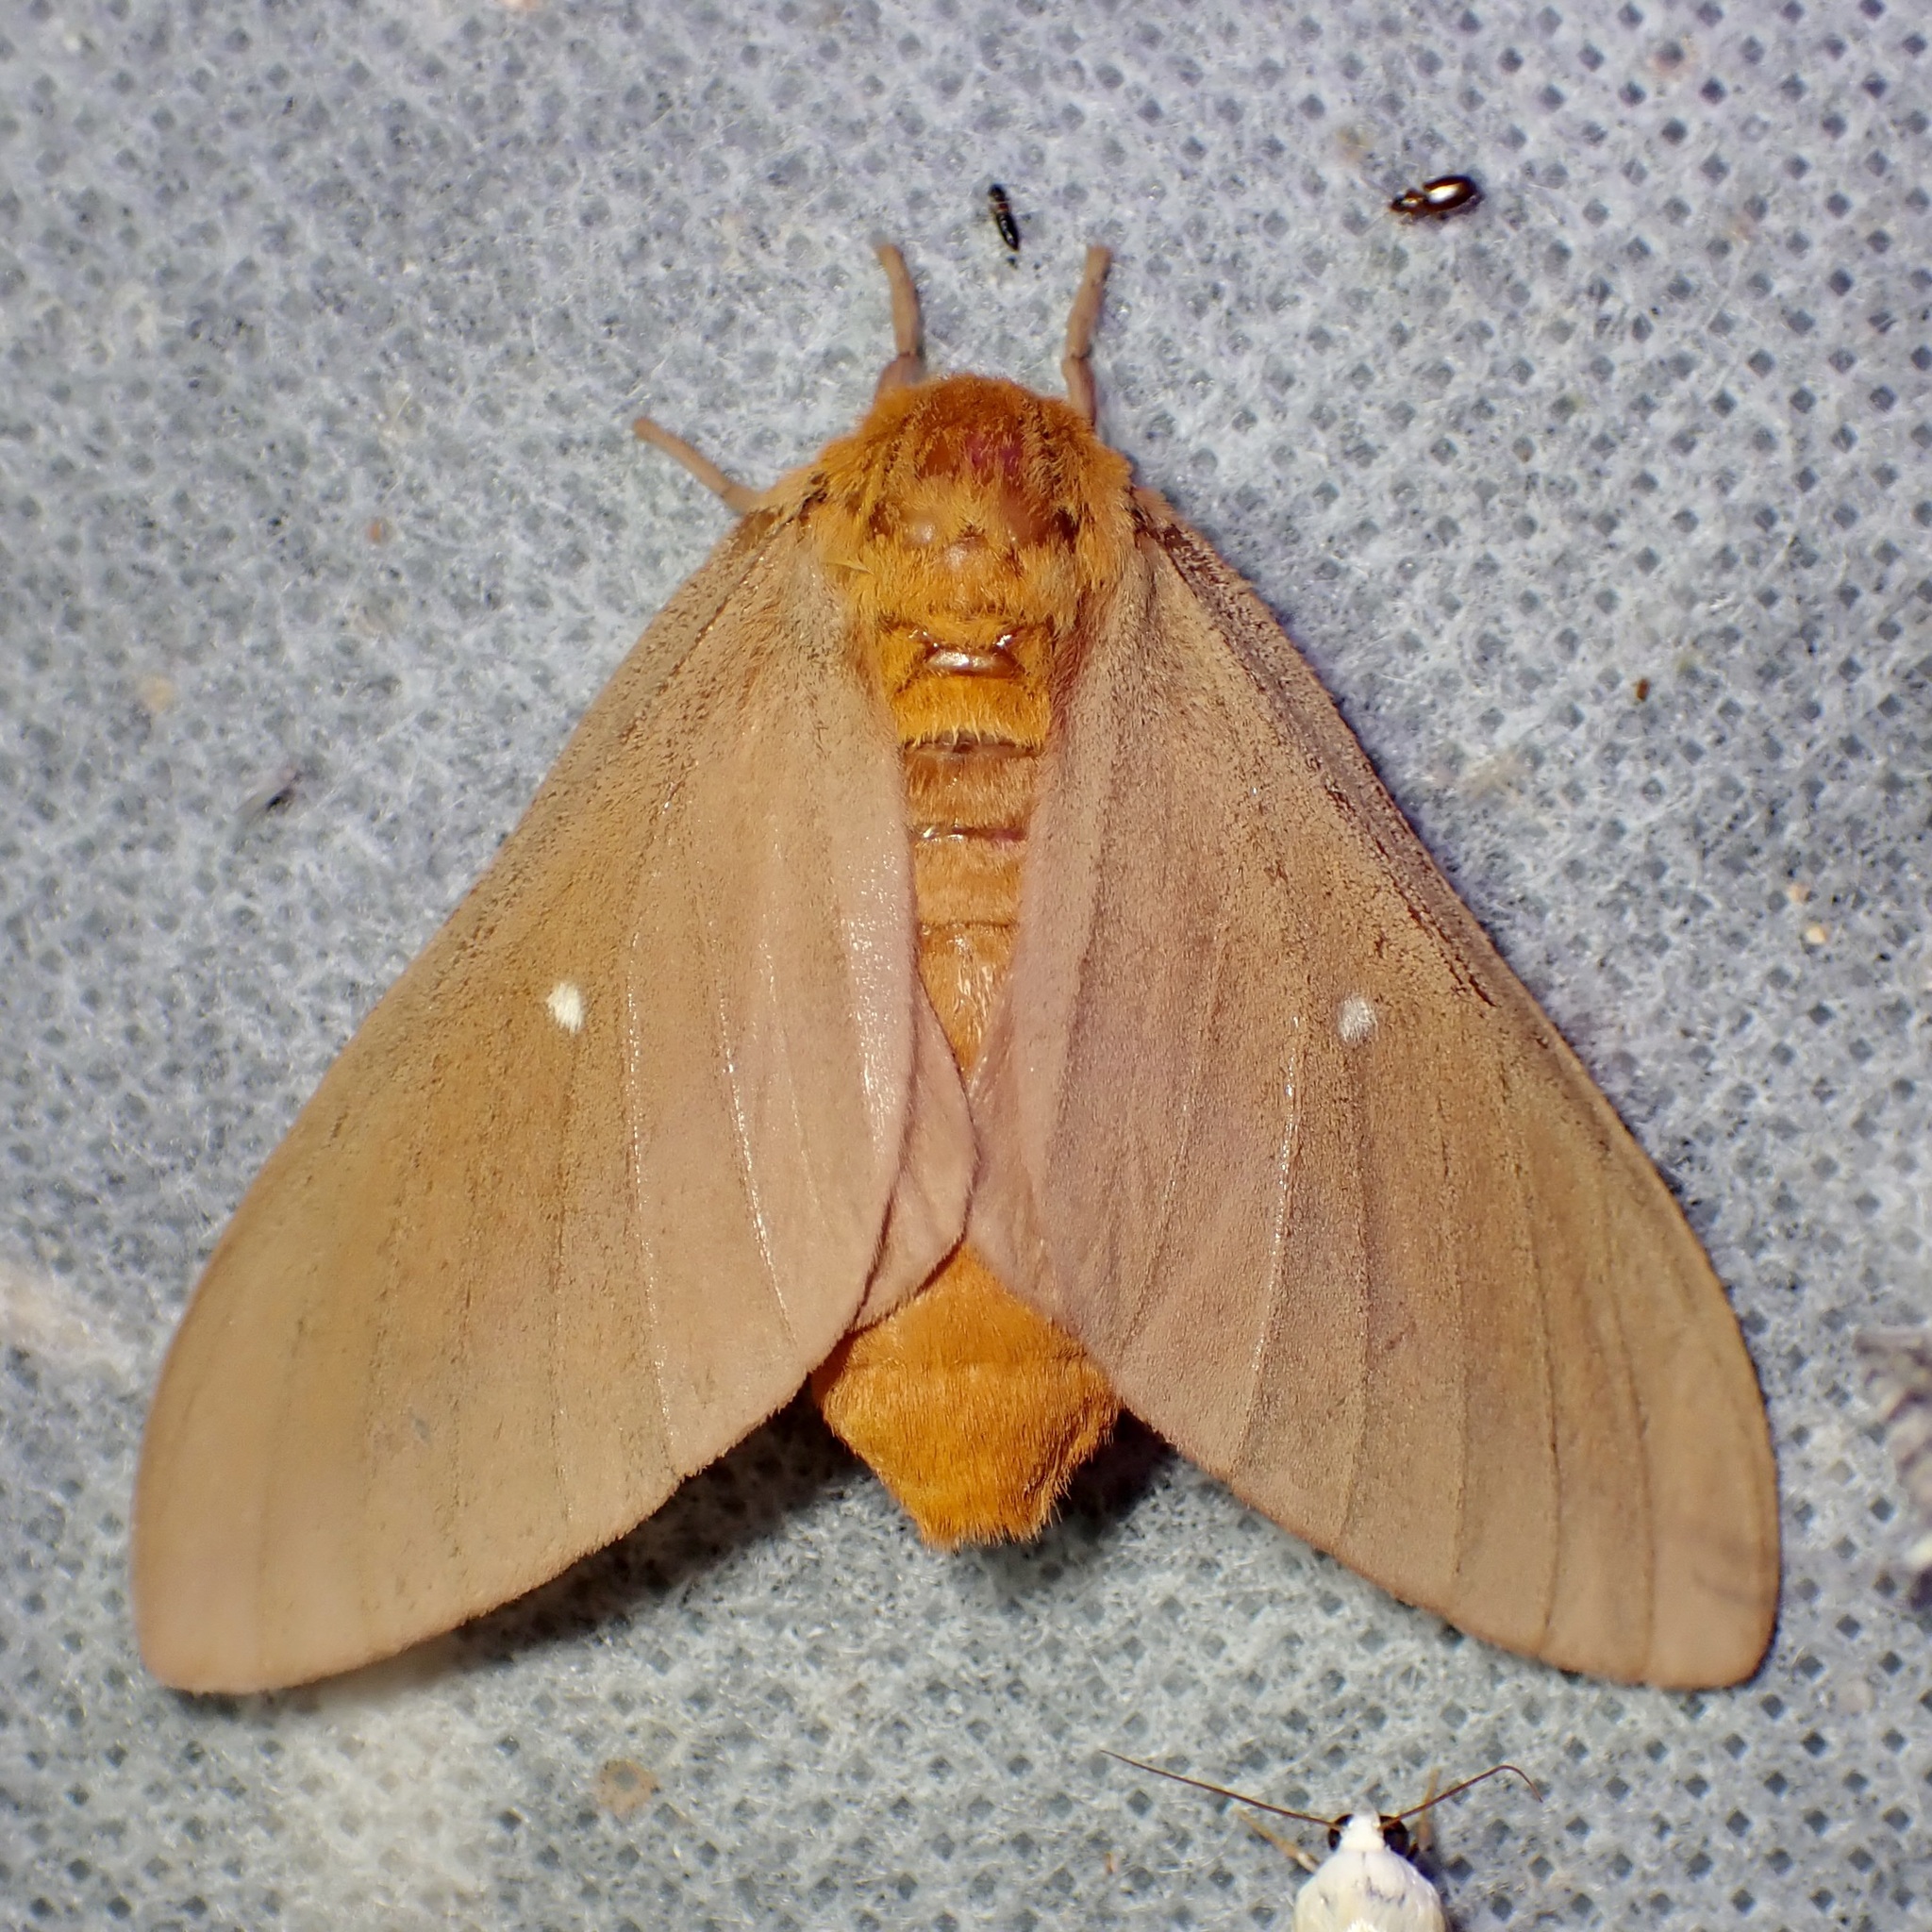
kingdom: Animalia
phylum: Arthropoda
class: Insecta
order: Lepidoptera
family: Saturniidae
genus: Anisota
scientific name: Anisota oslari
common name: Oslar's oakworm moth
